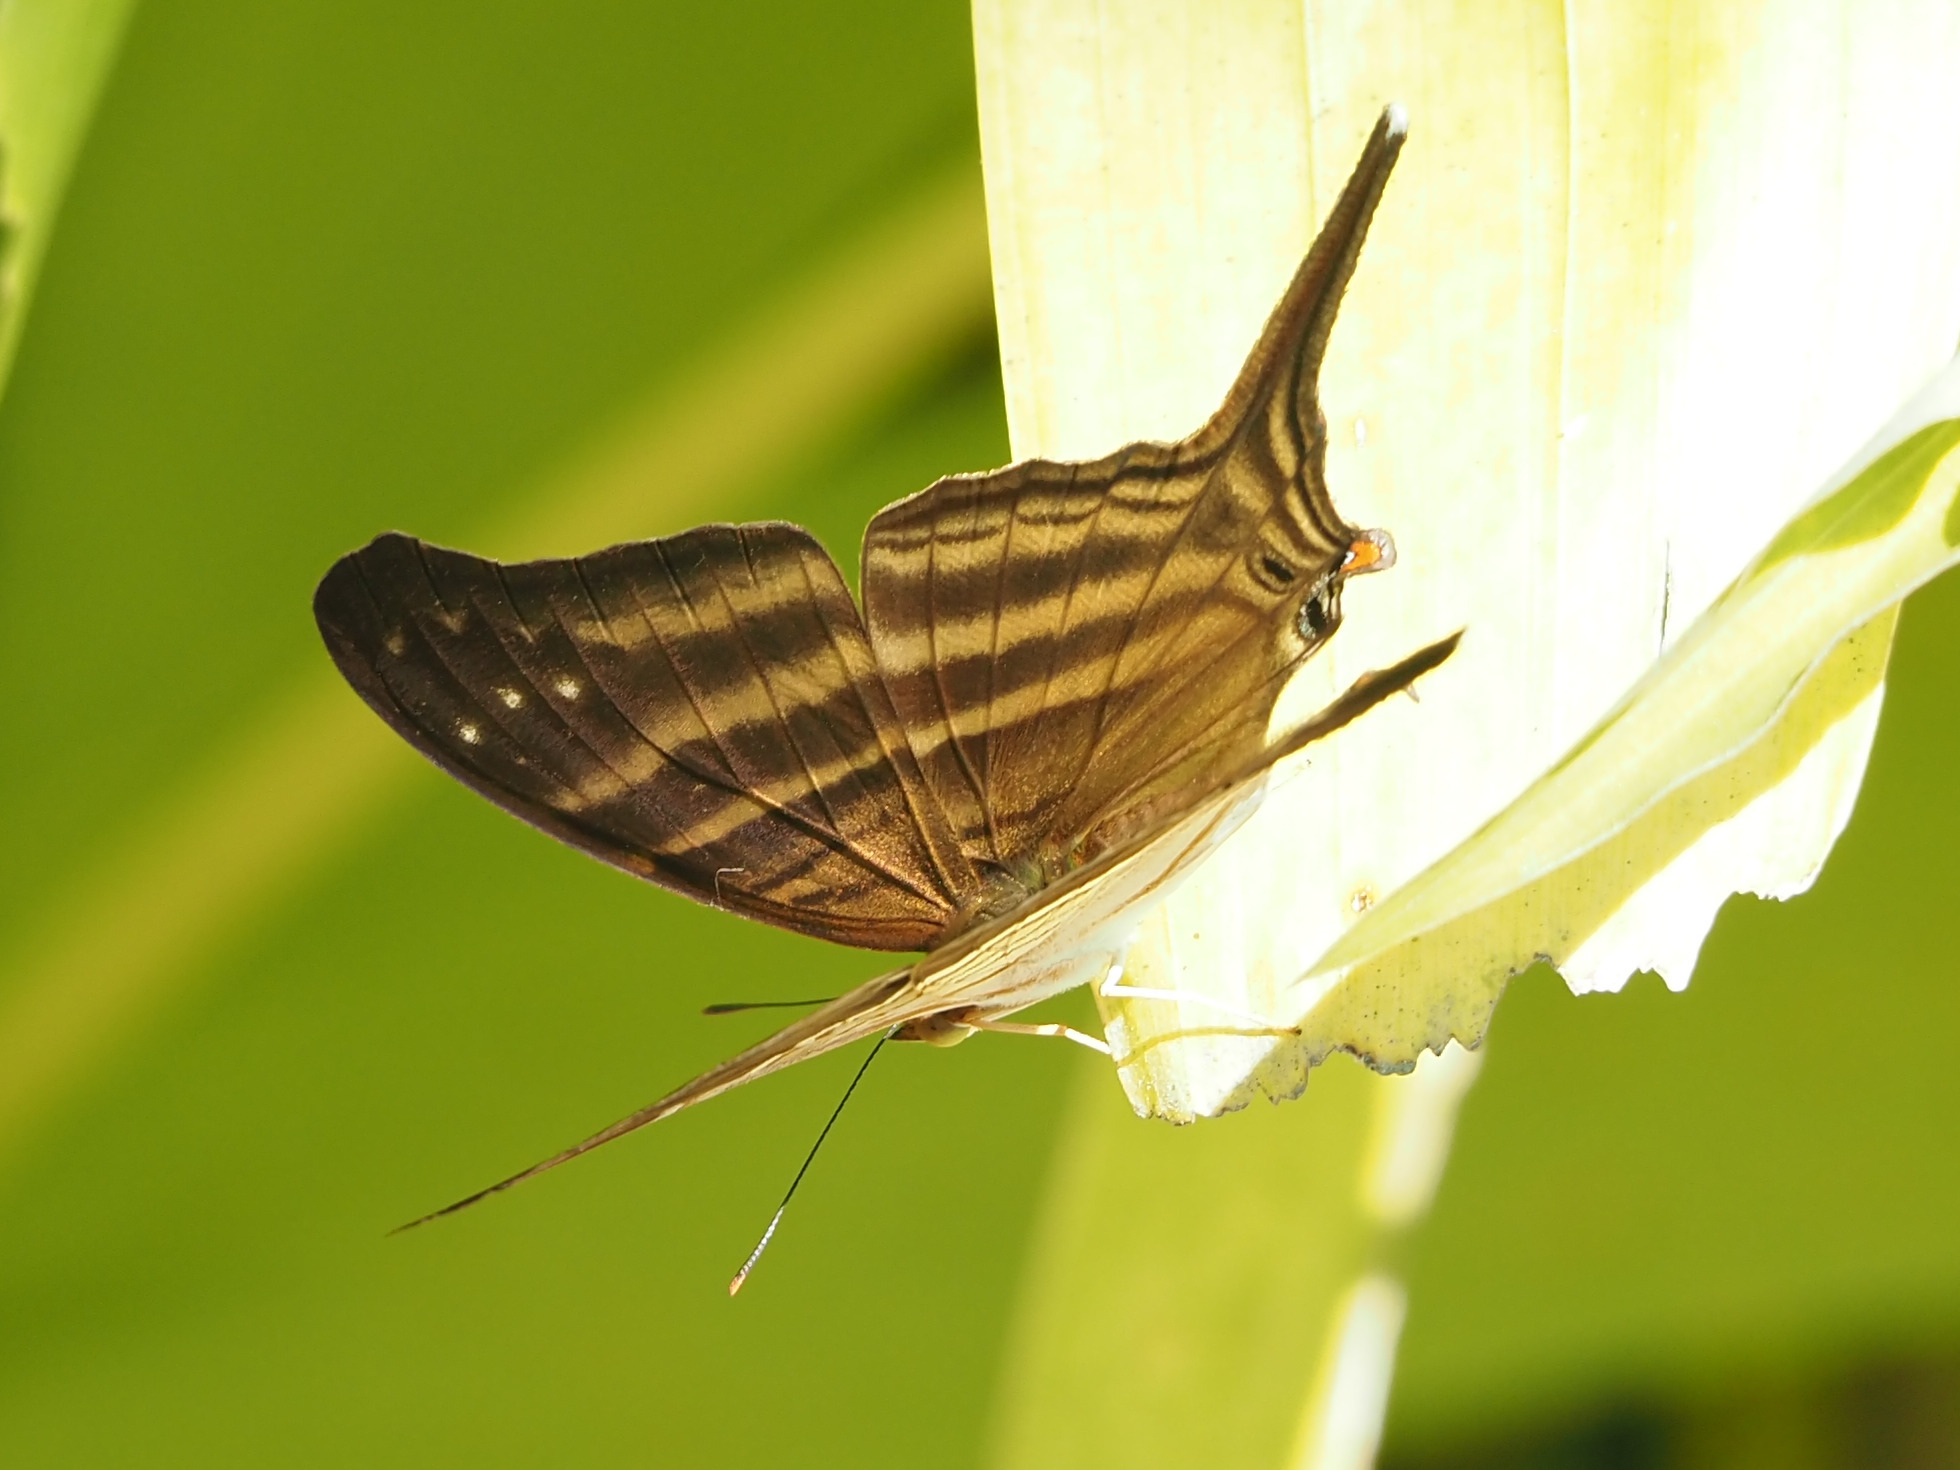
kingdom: Animalia
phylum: Arthropoda
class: Insecta
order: Lepidoptera
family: Nymphalidae
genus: Marpesia
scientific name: Marpesia chiron
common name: Many-banded daggerwing
